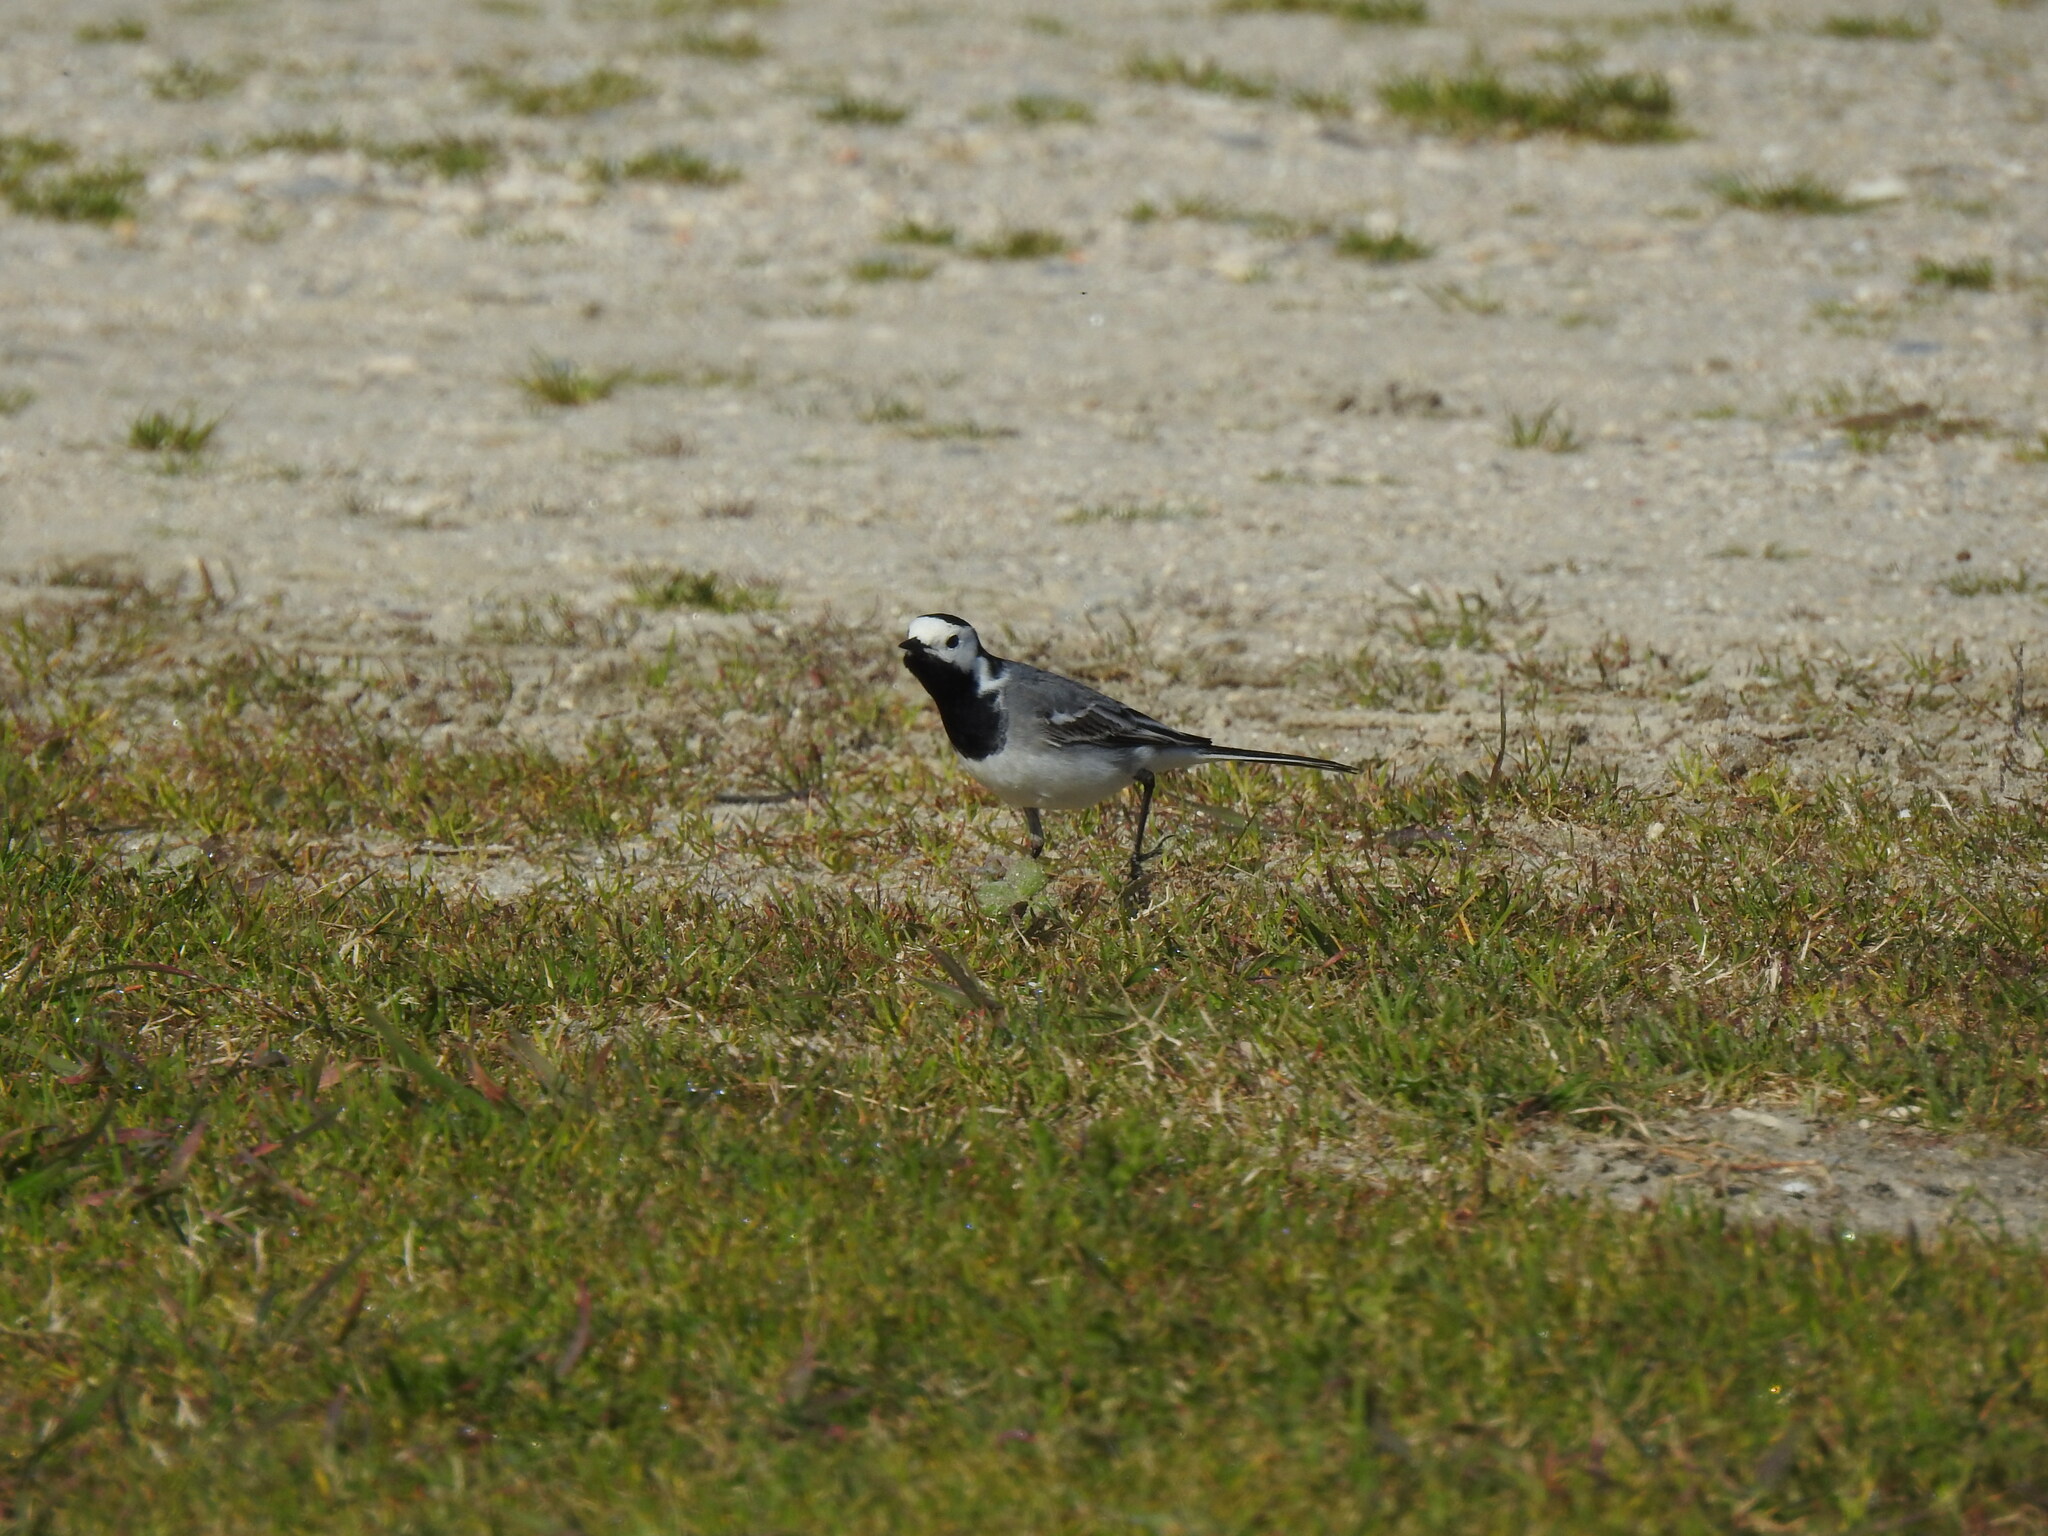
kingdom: Animalia
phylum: Chordata
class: Aves
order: Passeriformes
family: Motacillidae
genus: Motacilla
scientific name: Motacilla alba
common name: White wagtail
